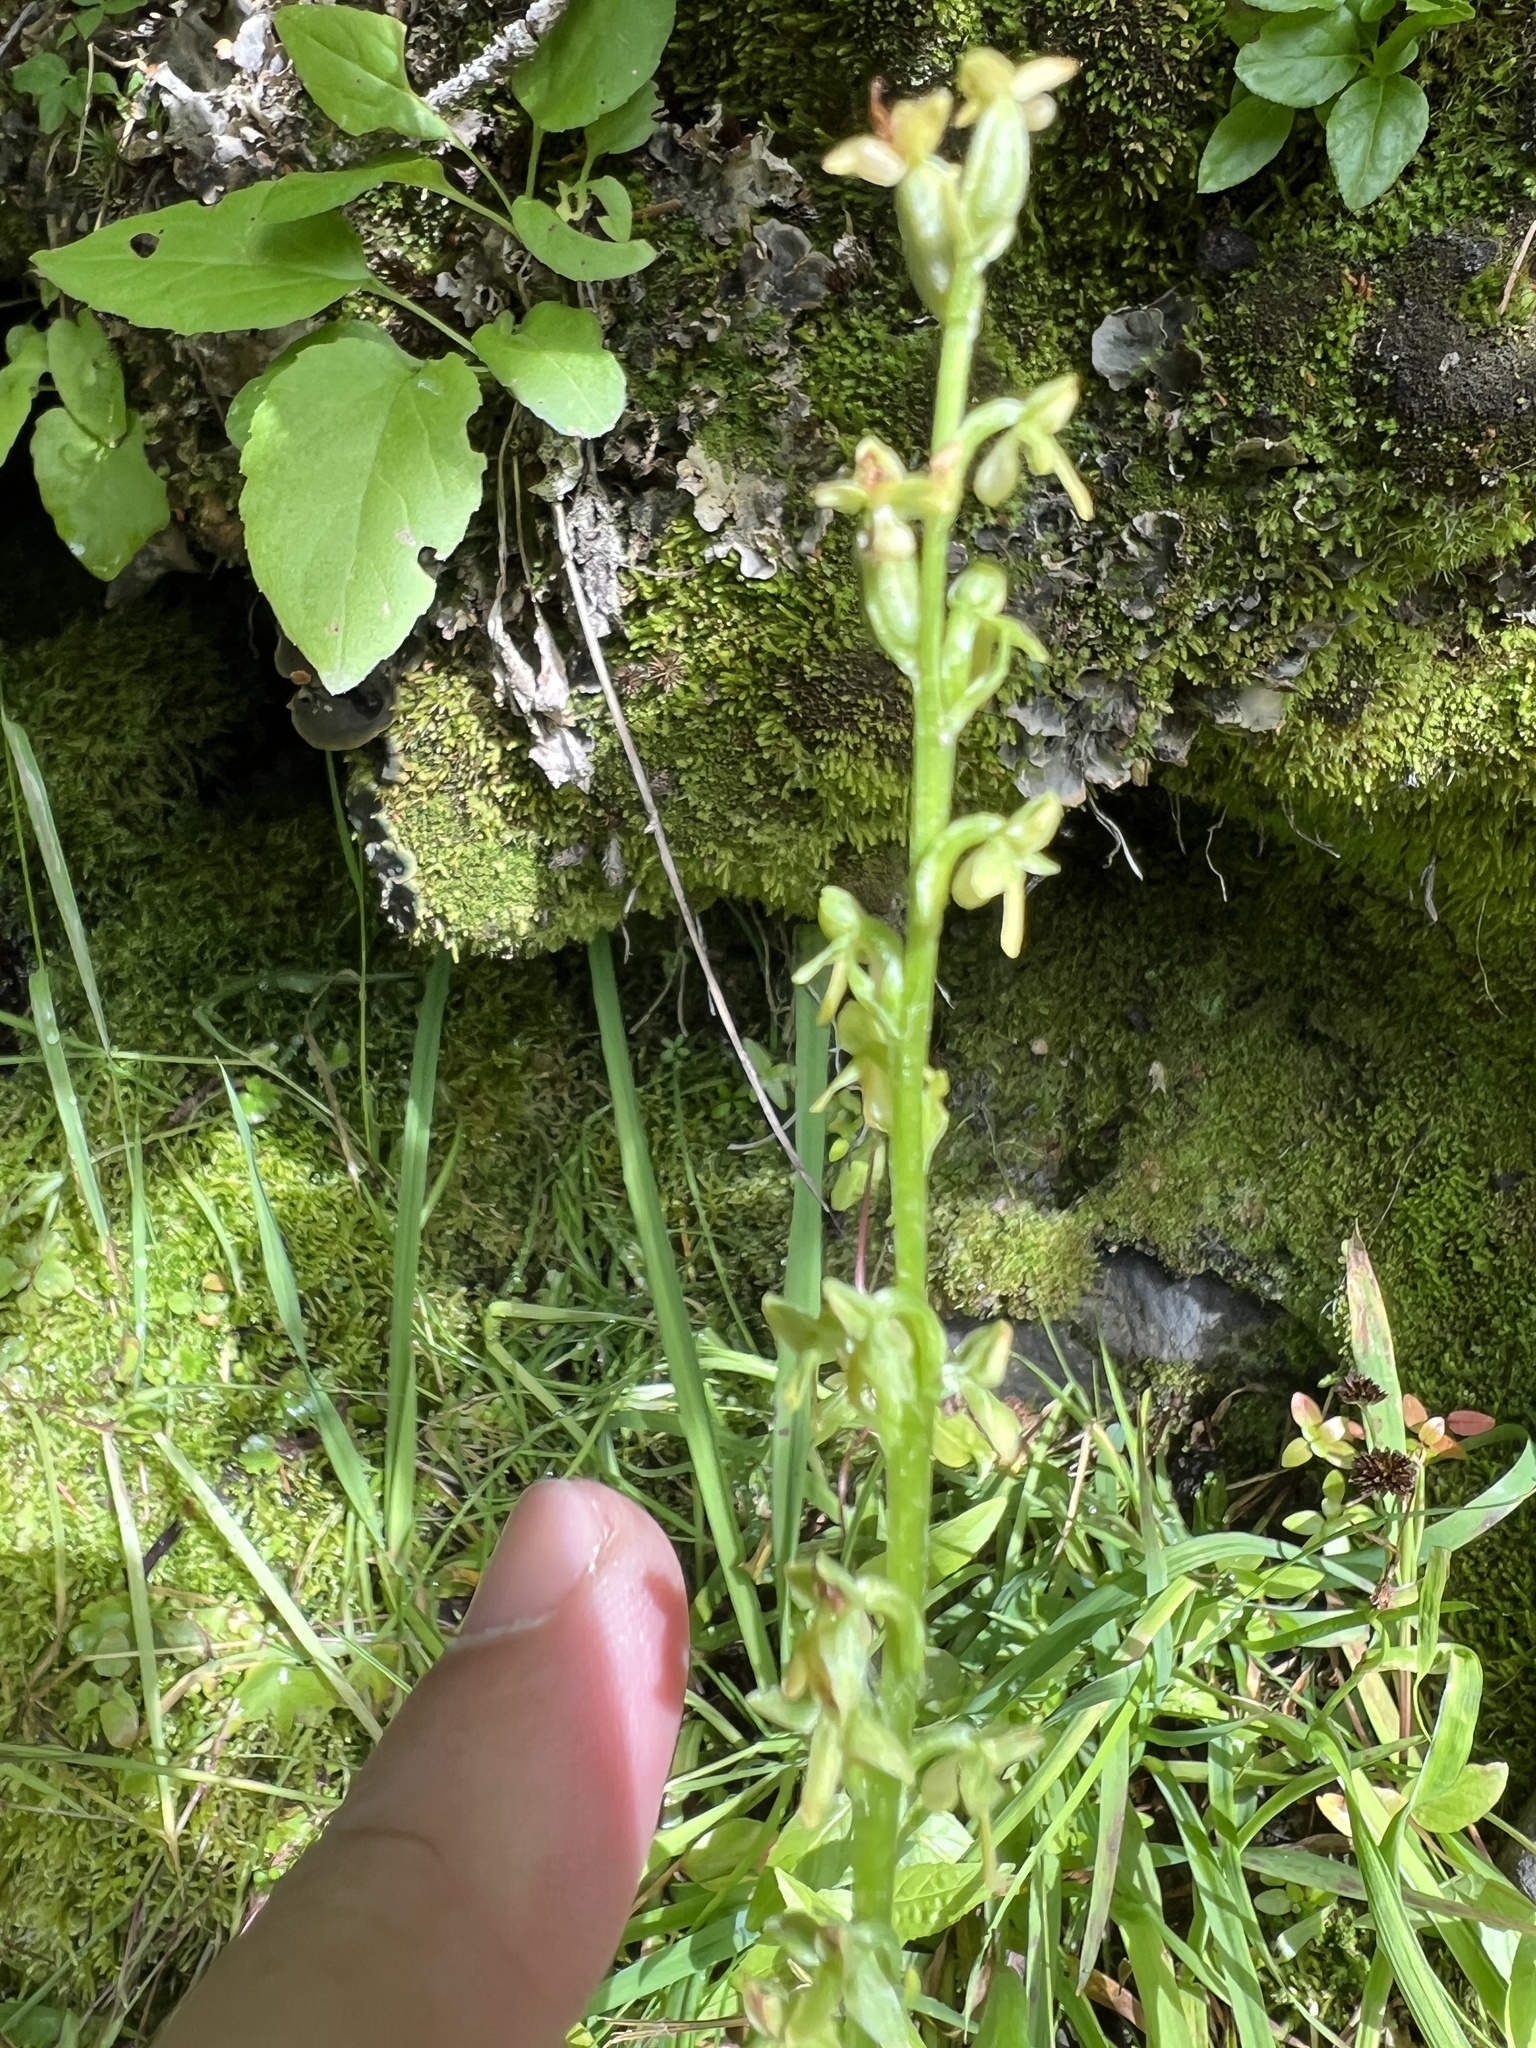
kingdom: Plantae
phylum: Tracheophyta
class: Liliopsida
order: Asparagales
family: Orchidaceae
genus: Platanthera
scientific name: Platanthera stricta
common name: Slender bog orchid
